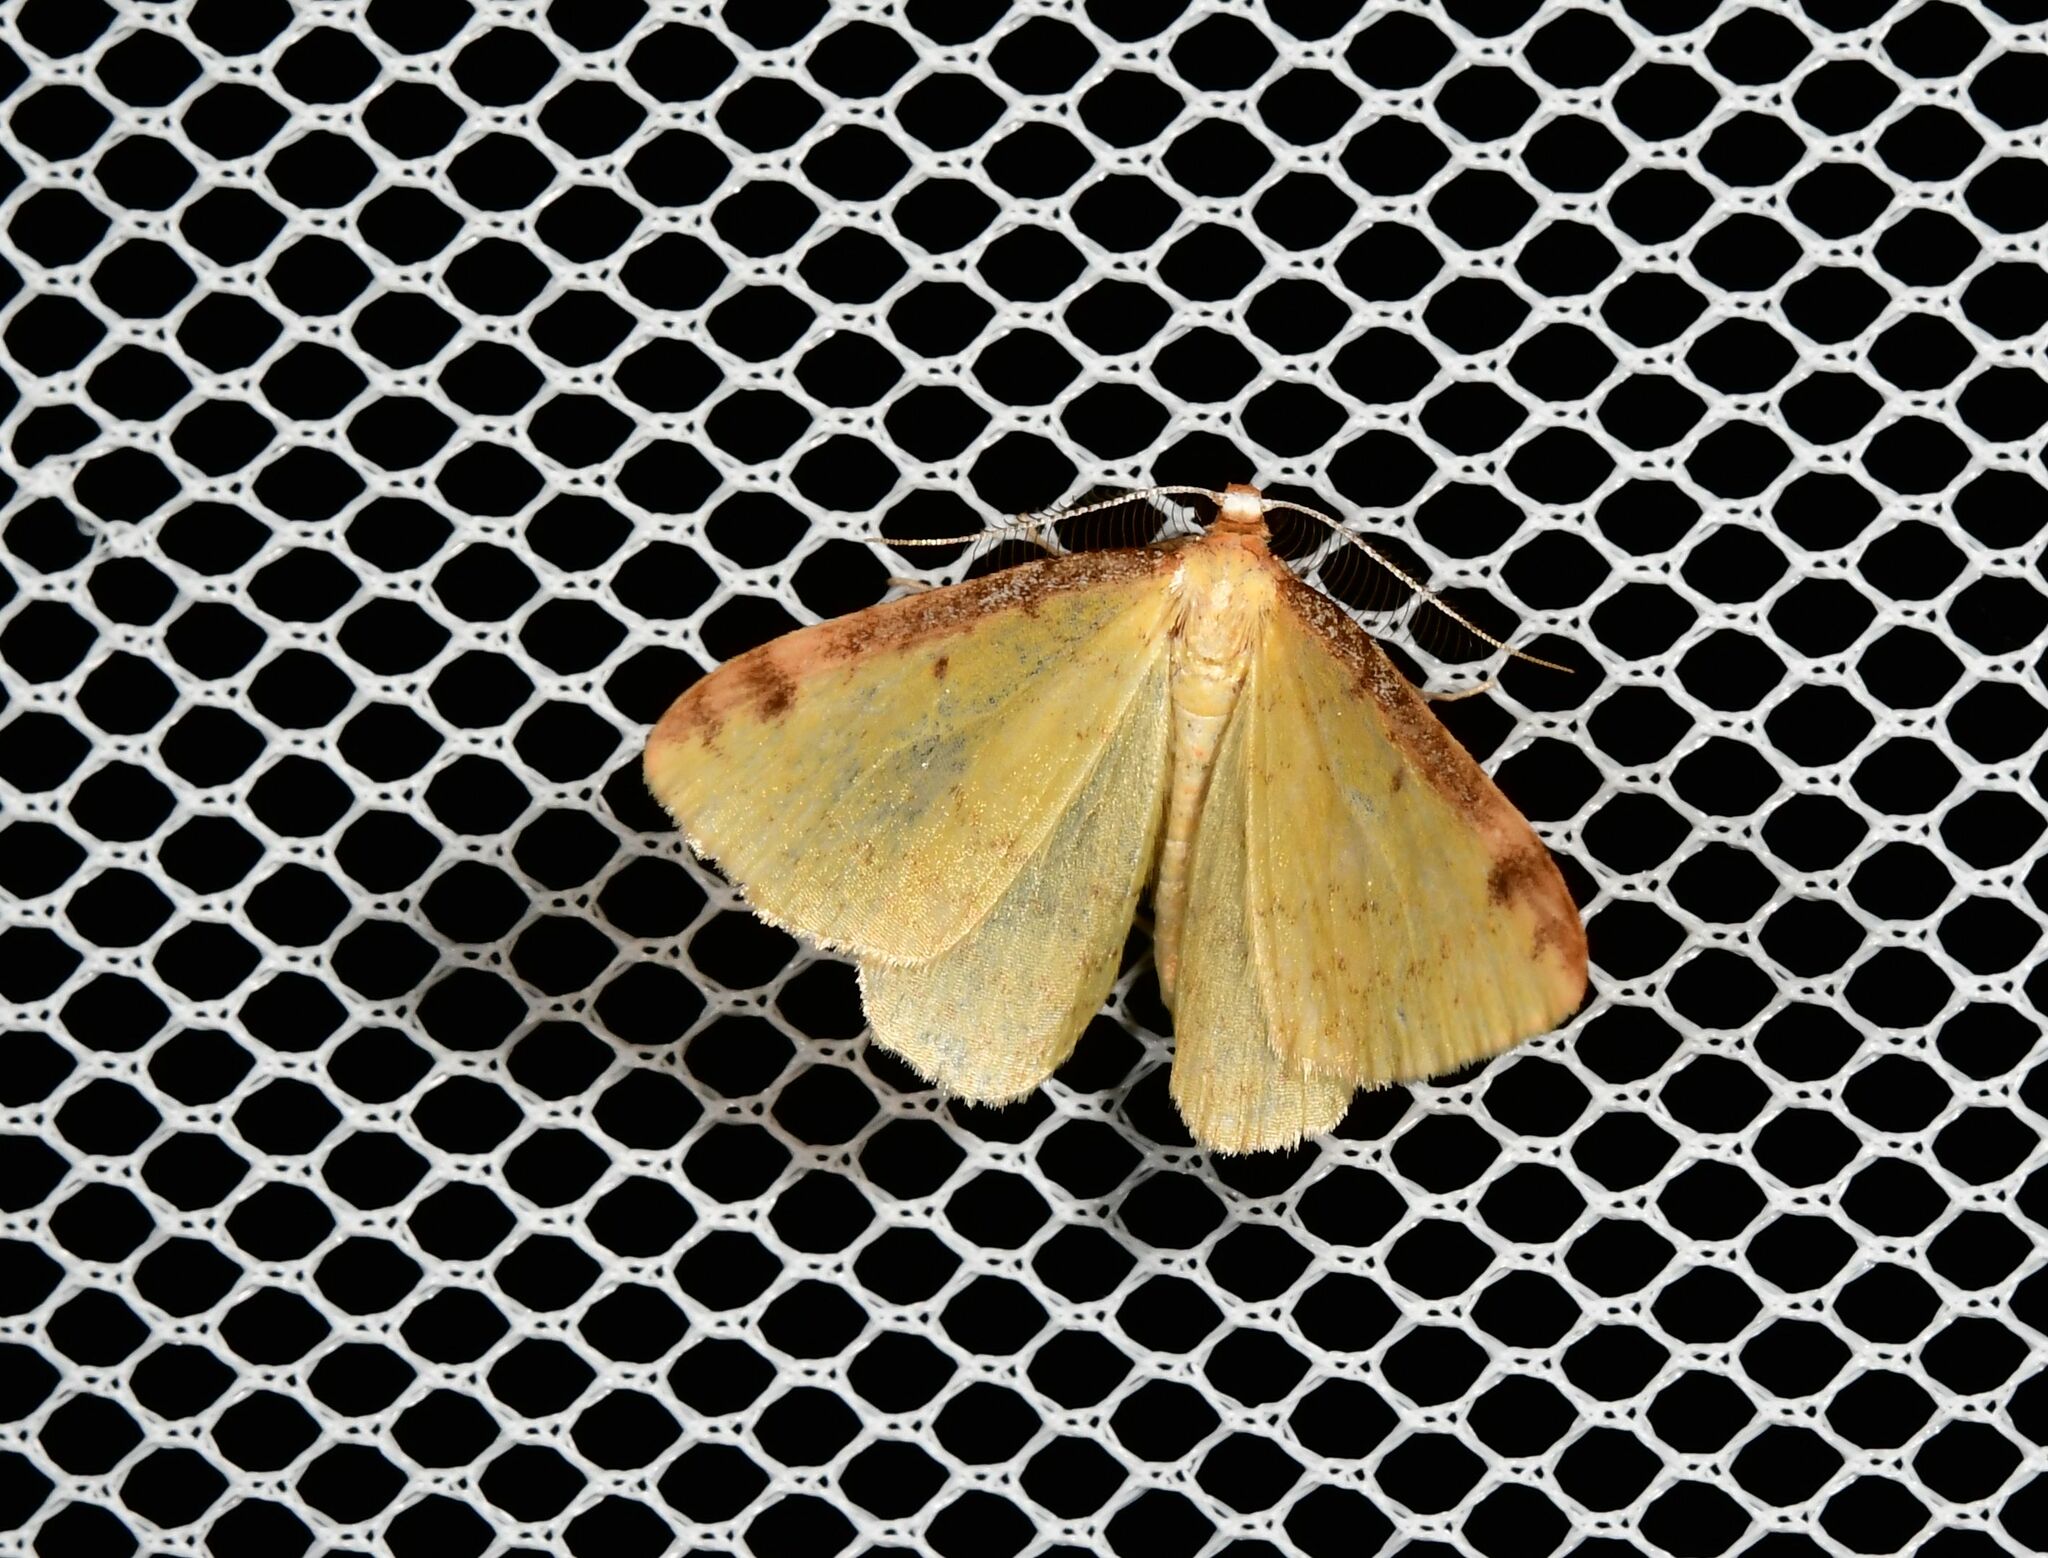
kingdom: Animalia
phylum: Arthropoda
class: Insecta
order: Lepidoptera
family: Geometridae
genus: Epiphryne
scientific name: Epiphryne undosata
